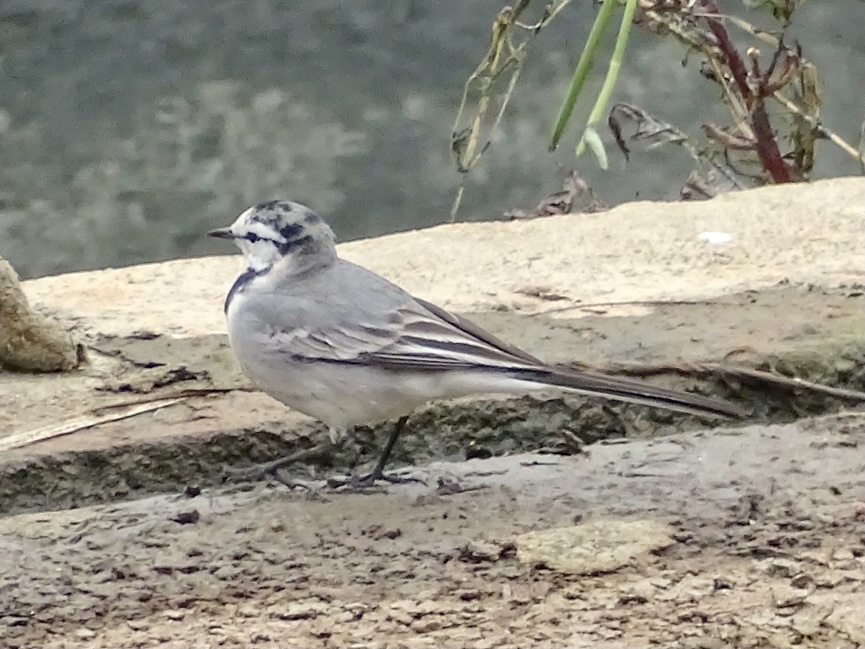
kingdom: Animalia
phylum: Chordata
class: Aves
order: Passeriformes
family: Motacillidae
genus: Motacilla
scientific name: Motacilla alba
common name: White wagtail
